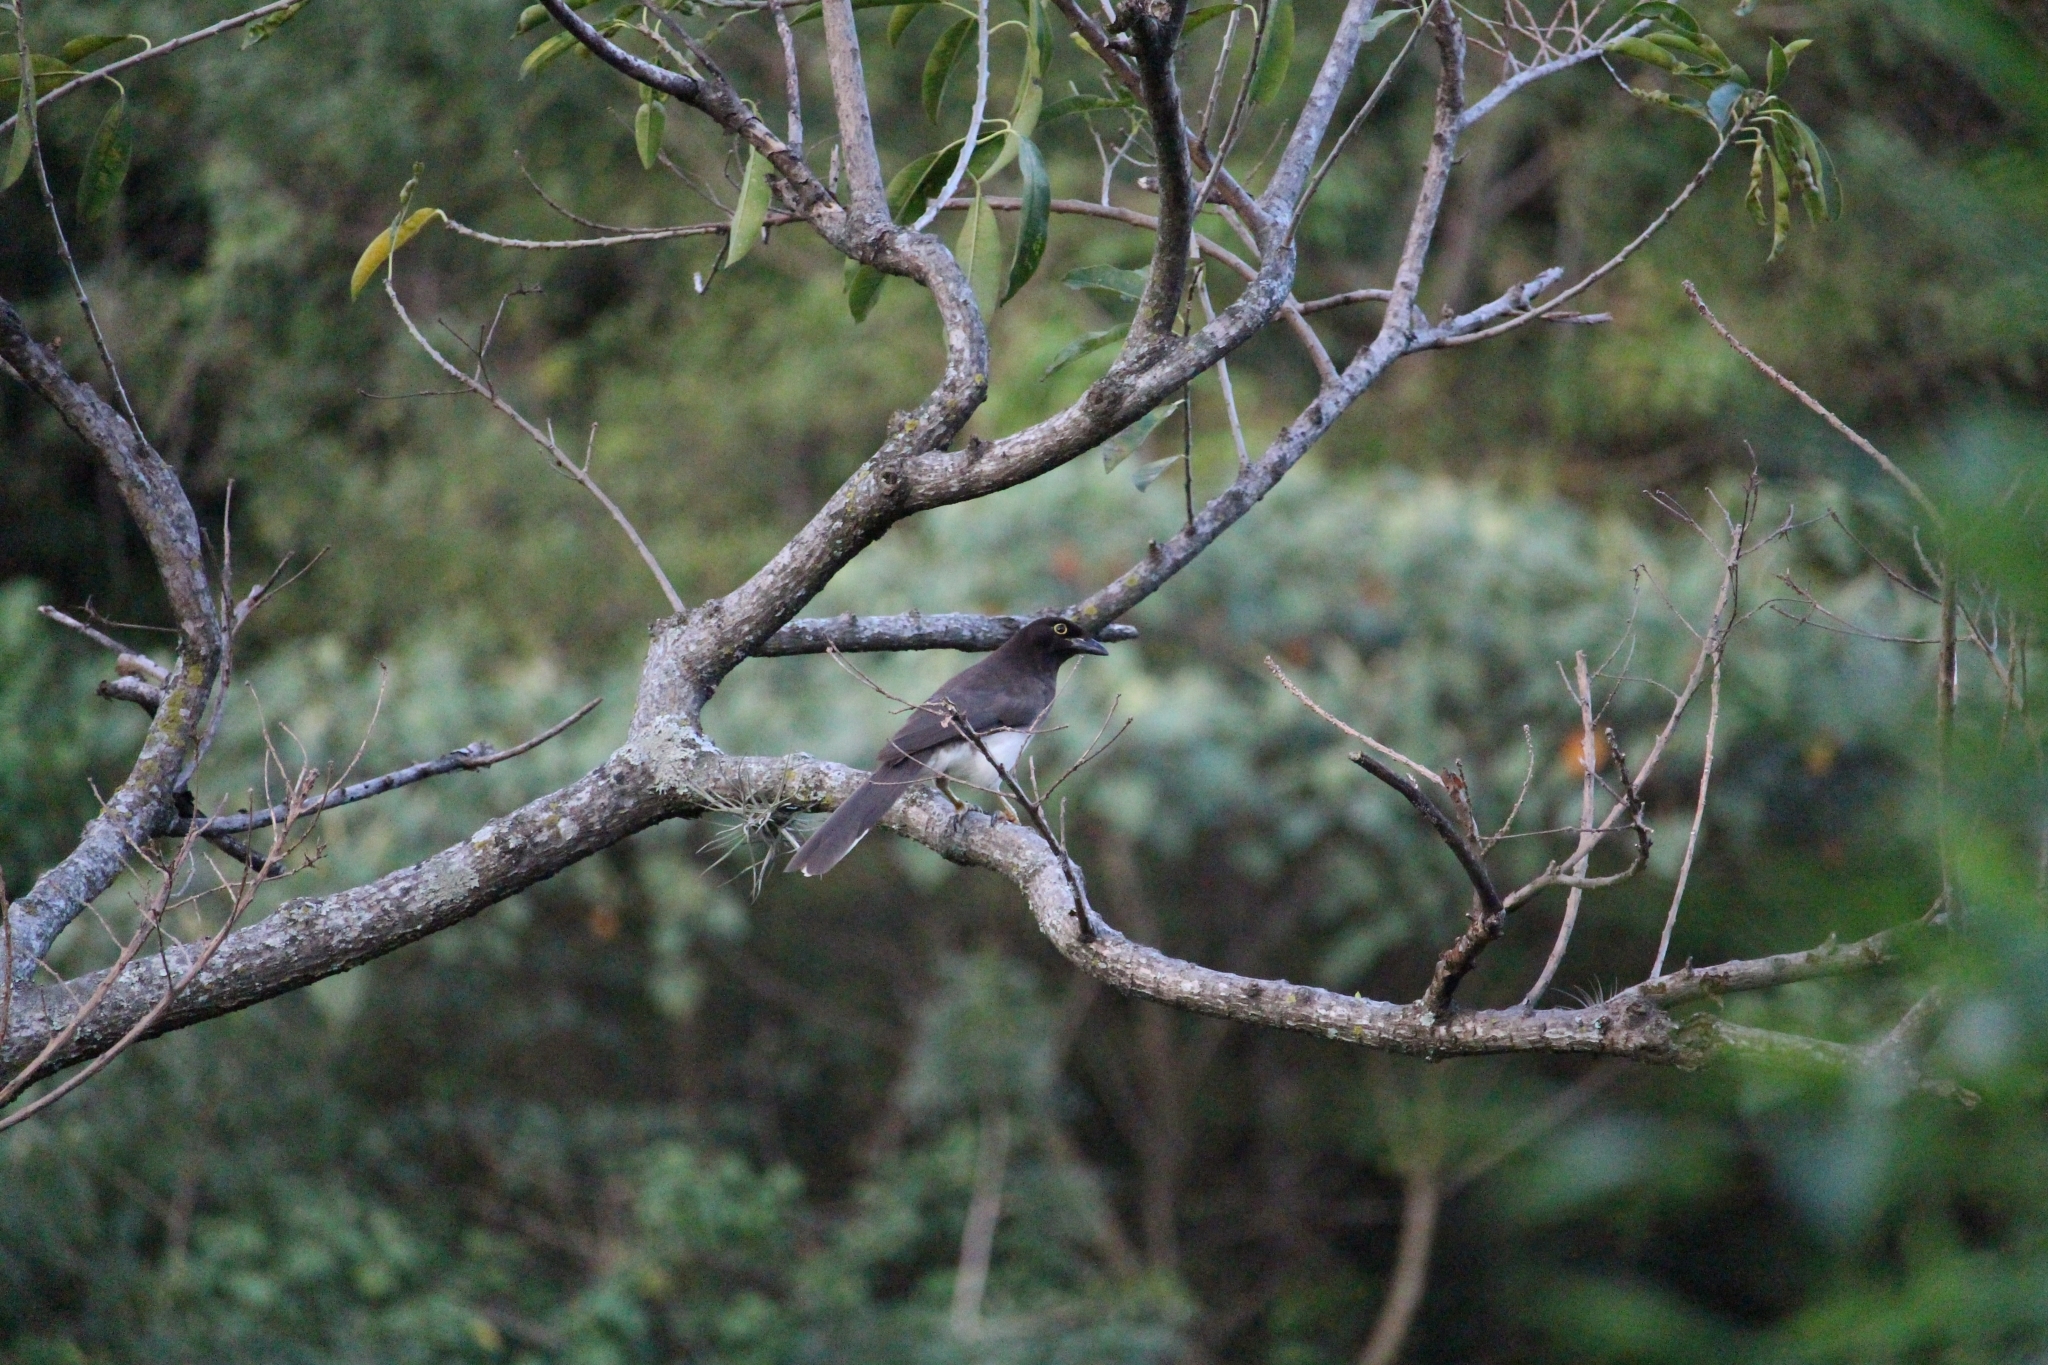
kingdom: Animalia
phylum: Chordata
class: Aves
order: Passeriformes
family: Corvidae
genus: Psilorhinus
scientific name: Psilorhinus morio
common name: Brown jay
